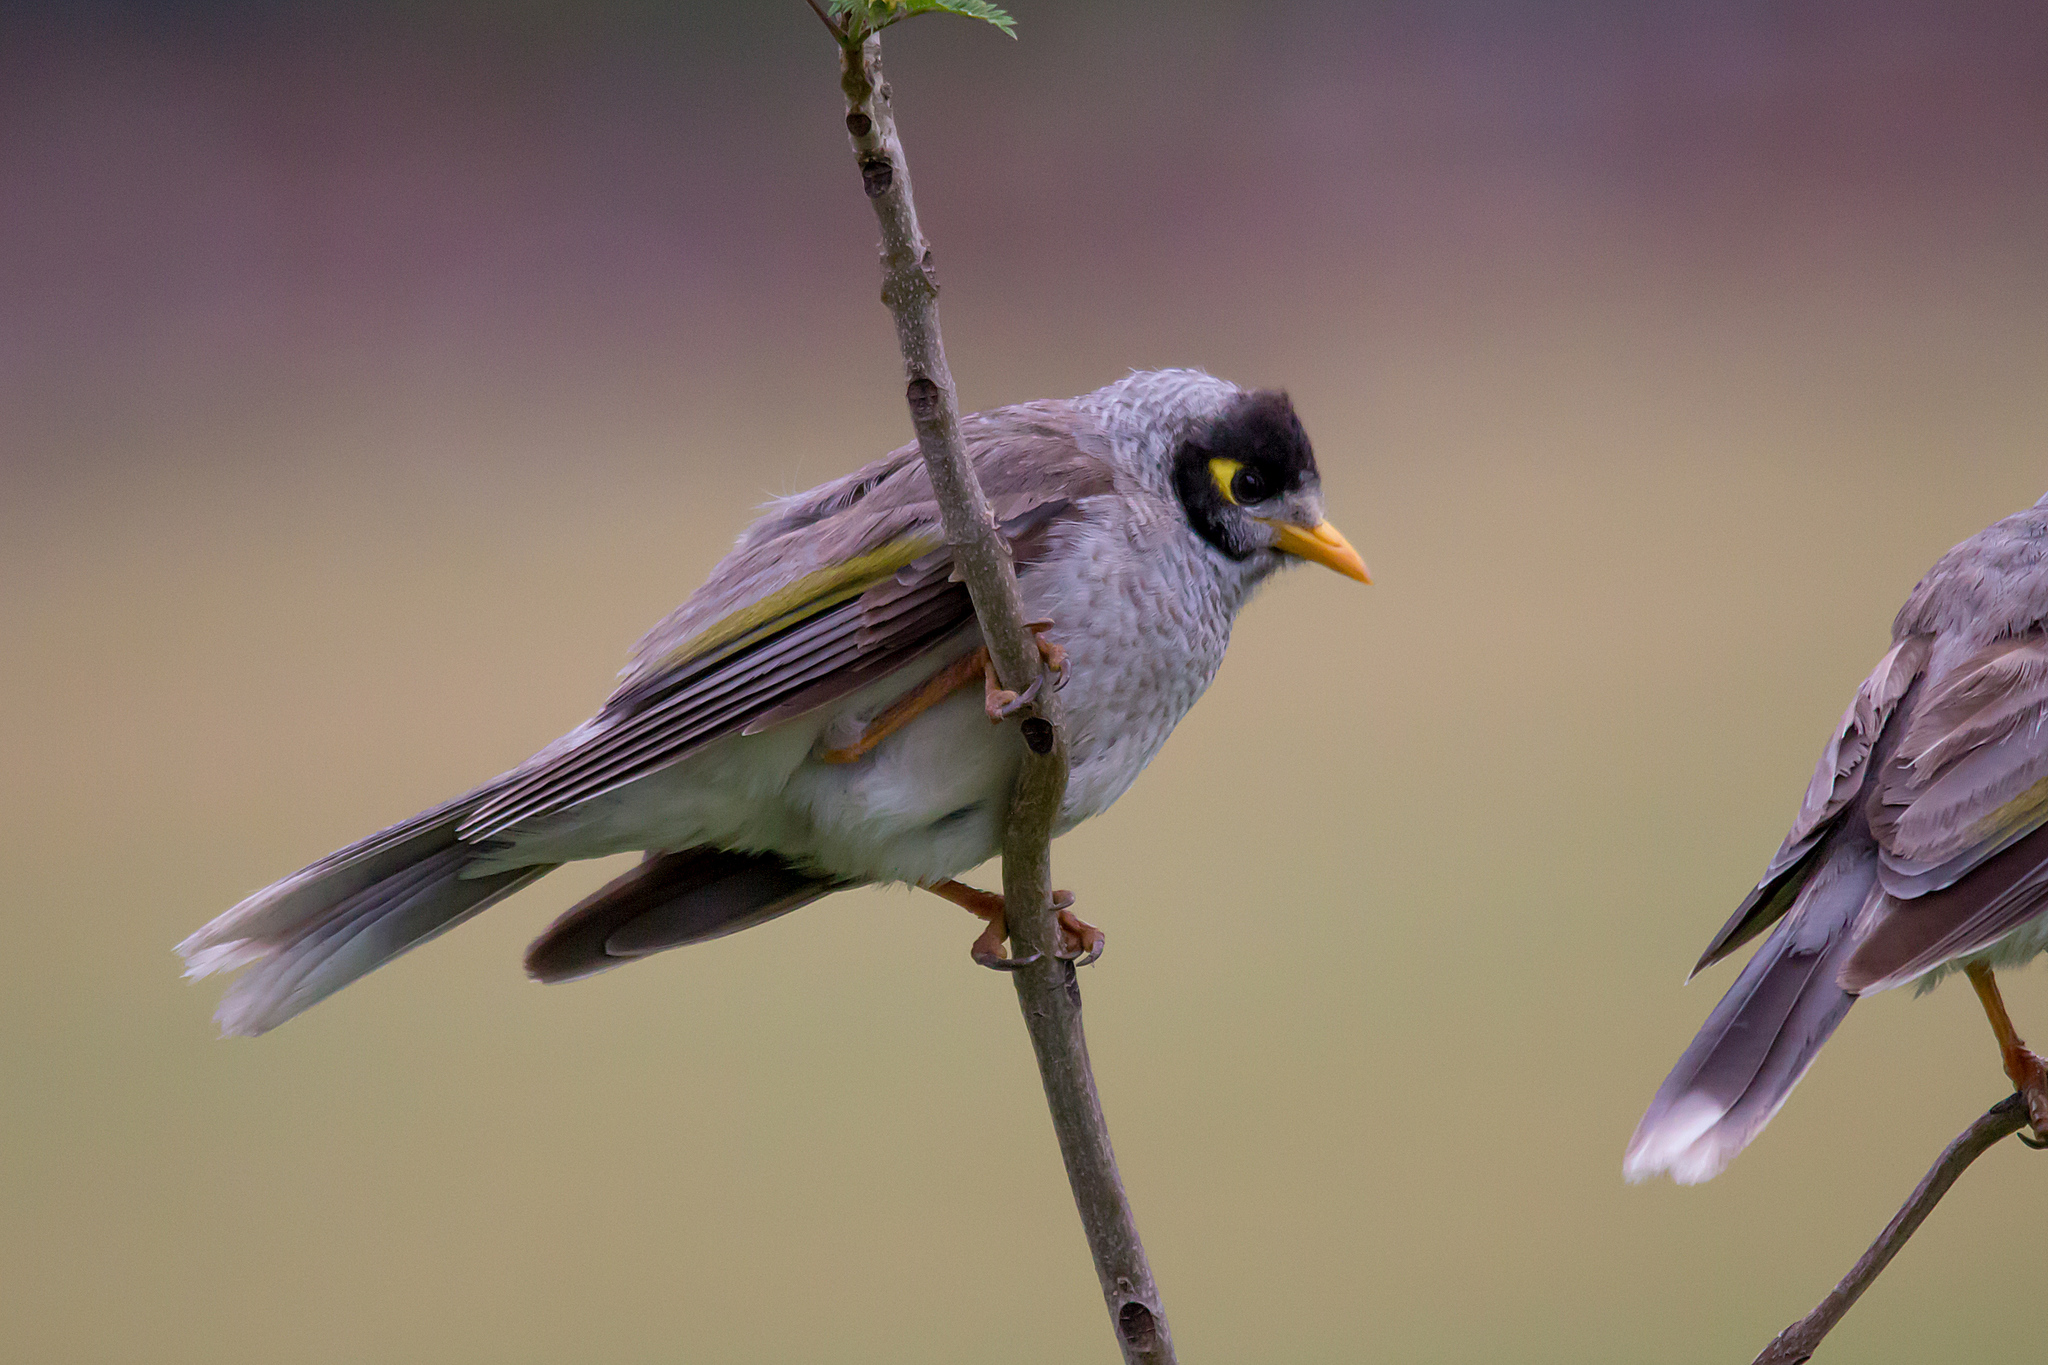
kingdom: Animalia
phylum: Chordata
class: Aves
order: Passeriformes
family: Meliphagidae
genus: Manorina
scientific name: Manorina melanocephala
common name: Noisy miner
